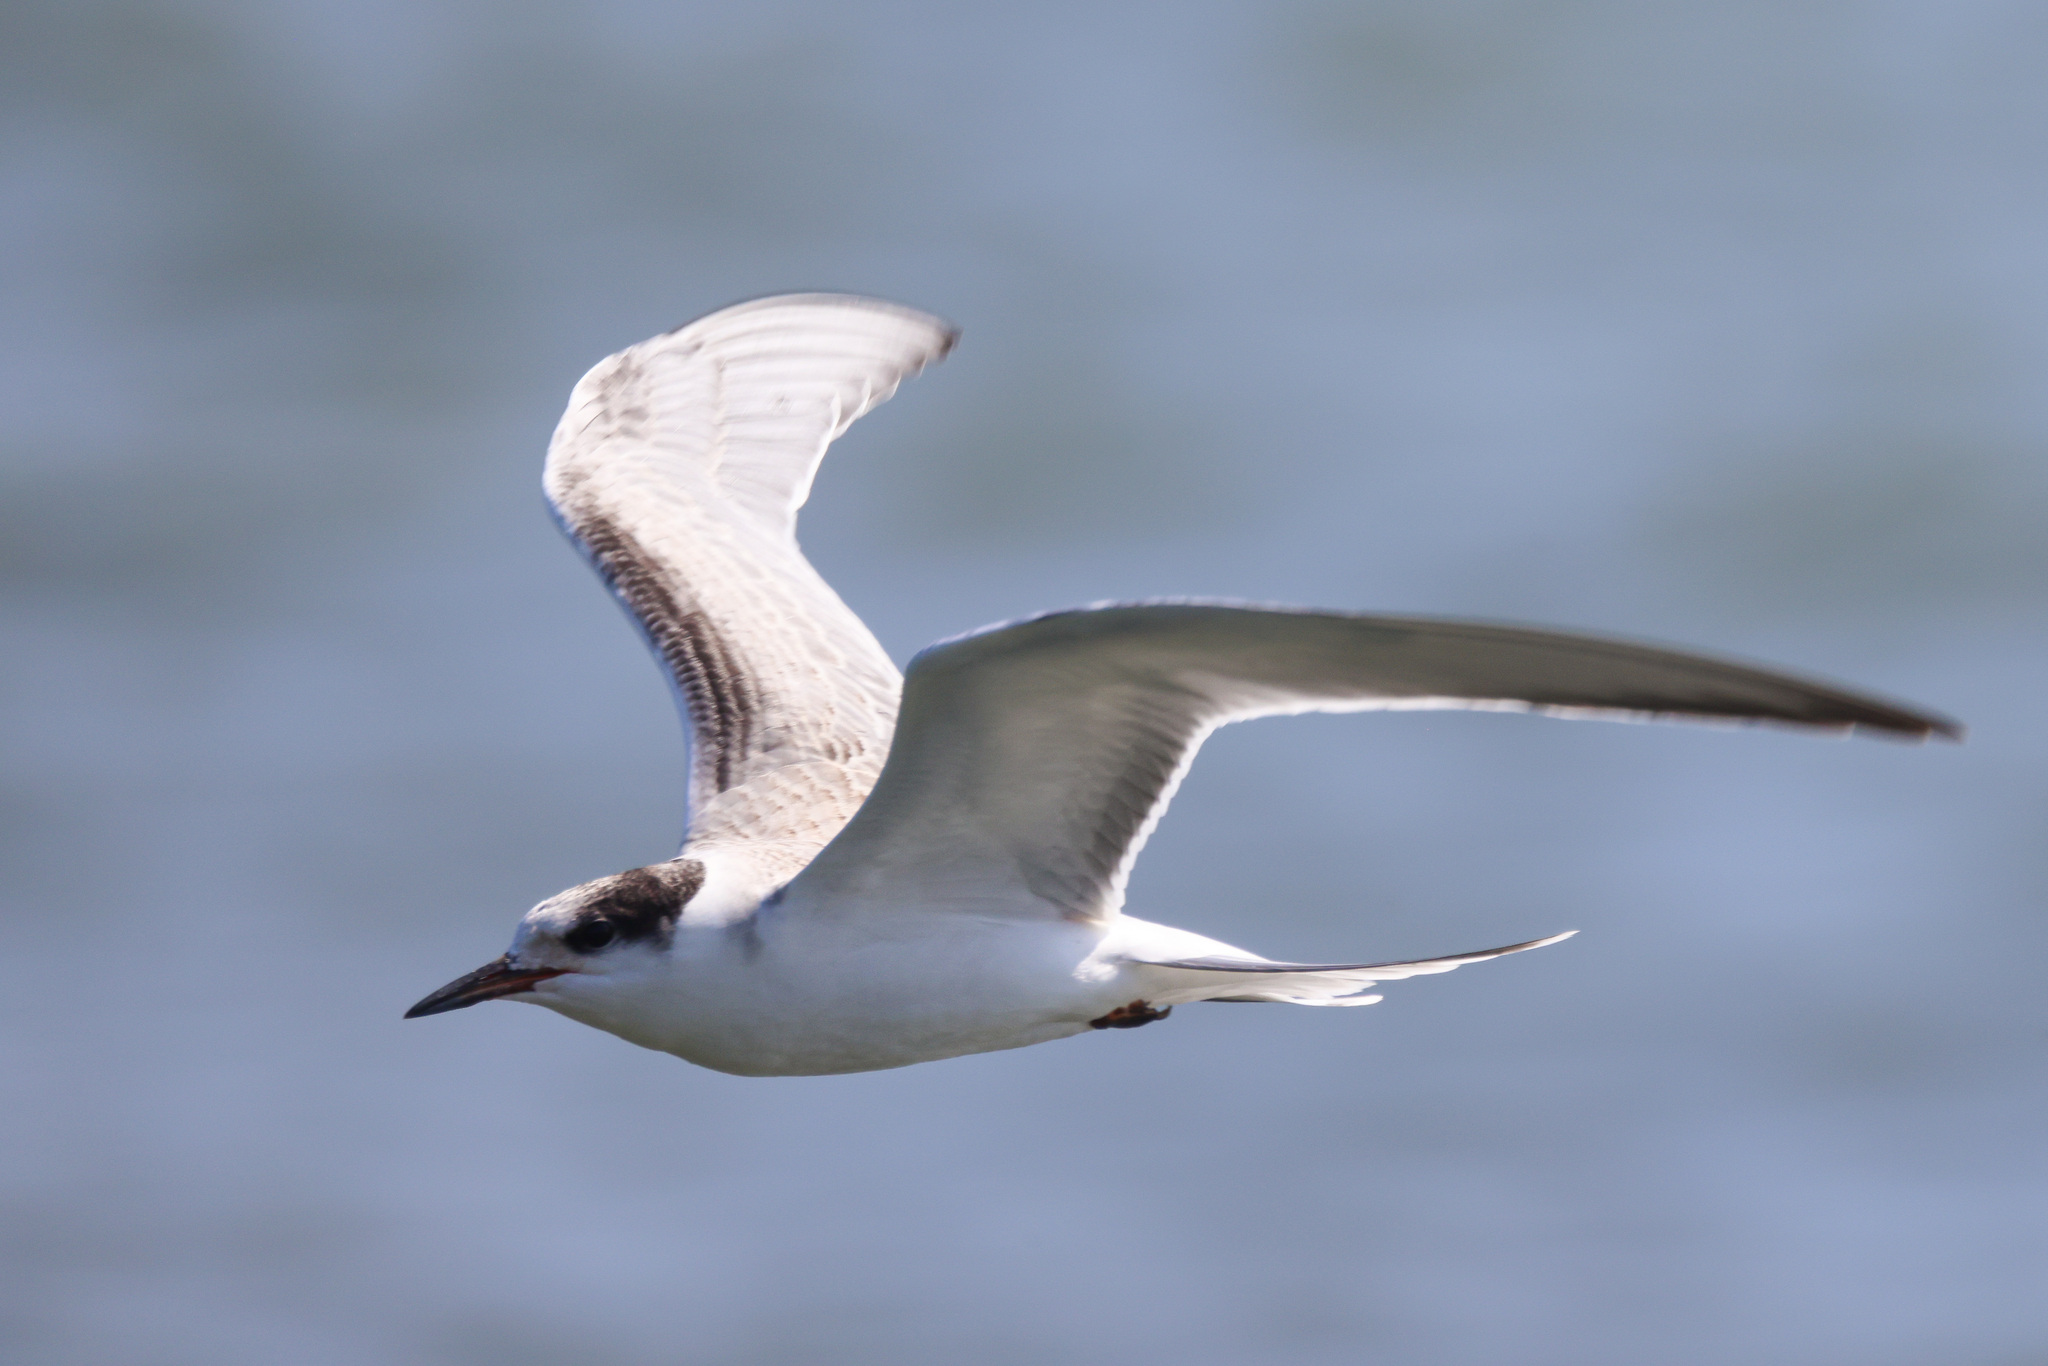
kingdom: Animalia
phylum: Chordata
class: Aves
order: Charadriiformes
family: Laridae
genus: Sterna
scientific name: Sterna hirundo
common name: Common tern
